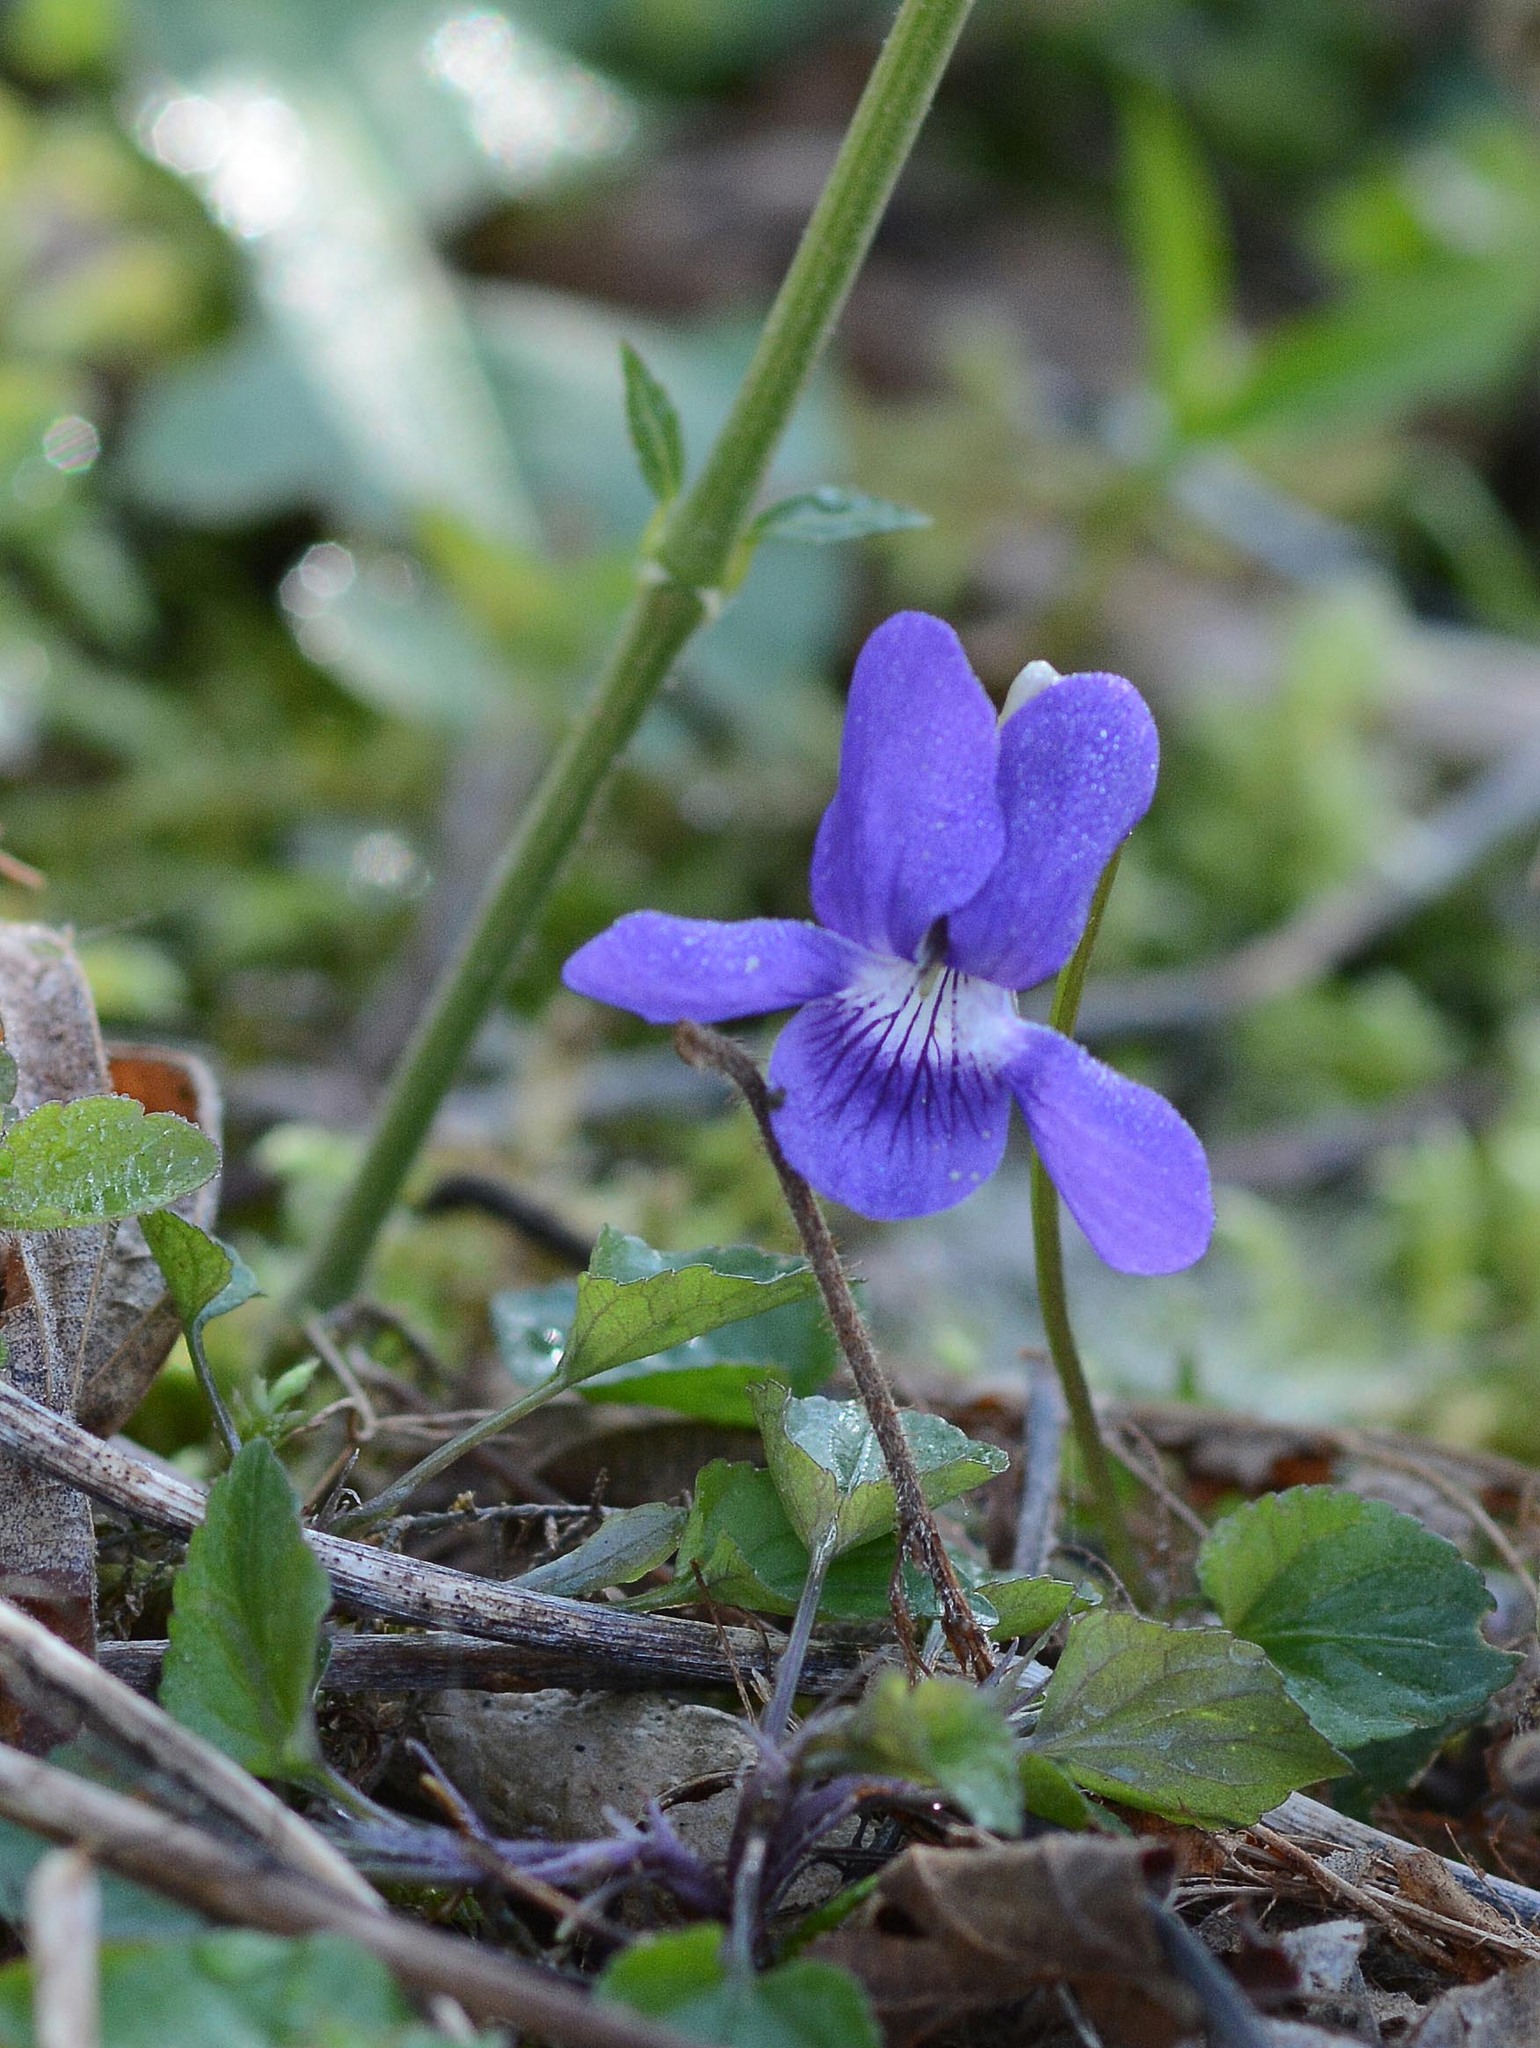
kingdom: Plantae
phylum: Tracheophyta
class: Magnoliopsida
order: Malpighiales
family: Violaceae
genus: Viola
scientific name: Viola riviniana
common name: Common dog-violet
